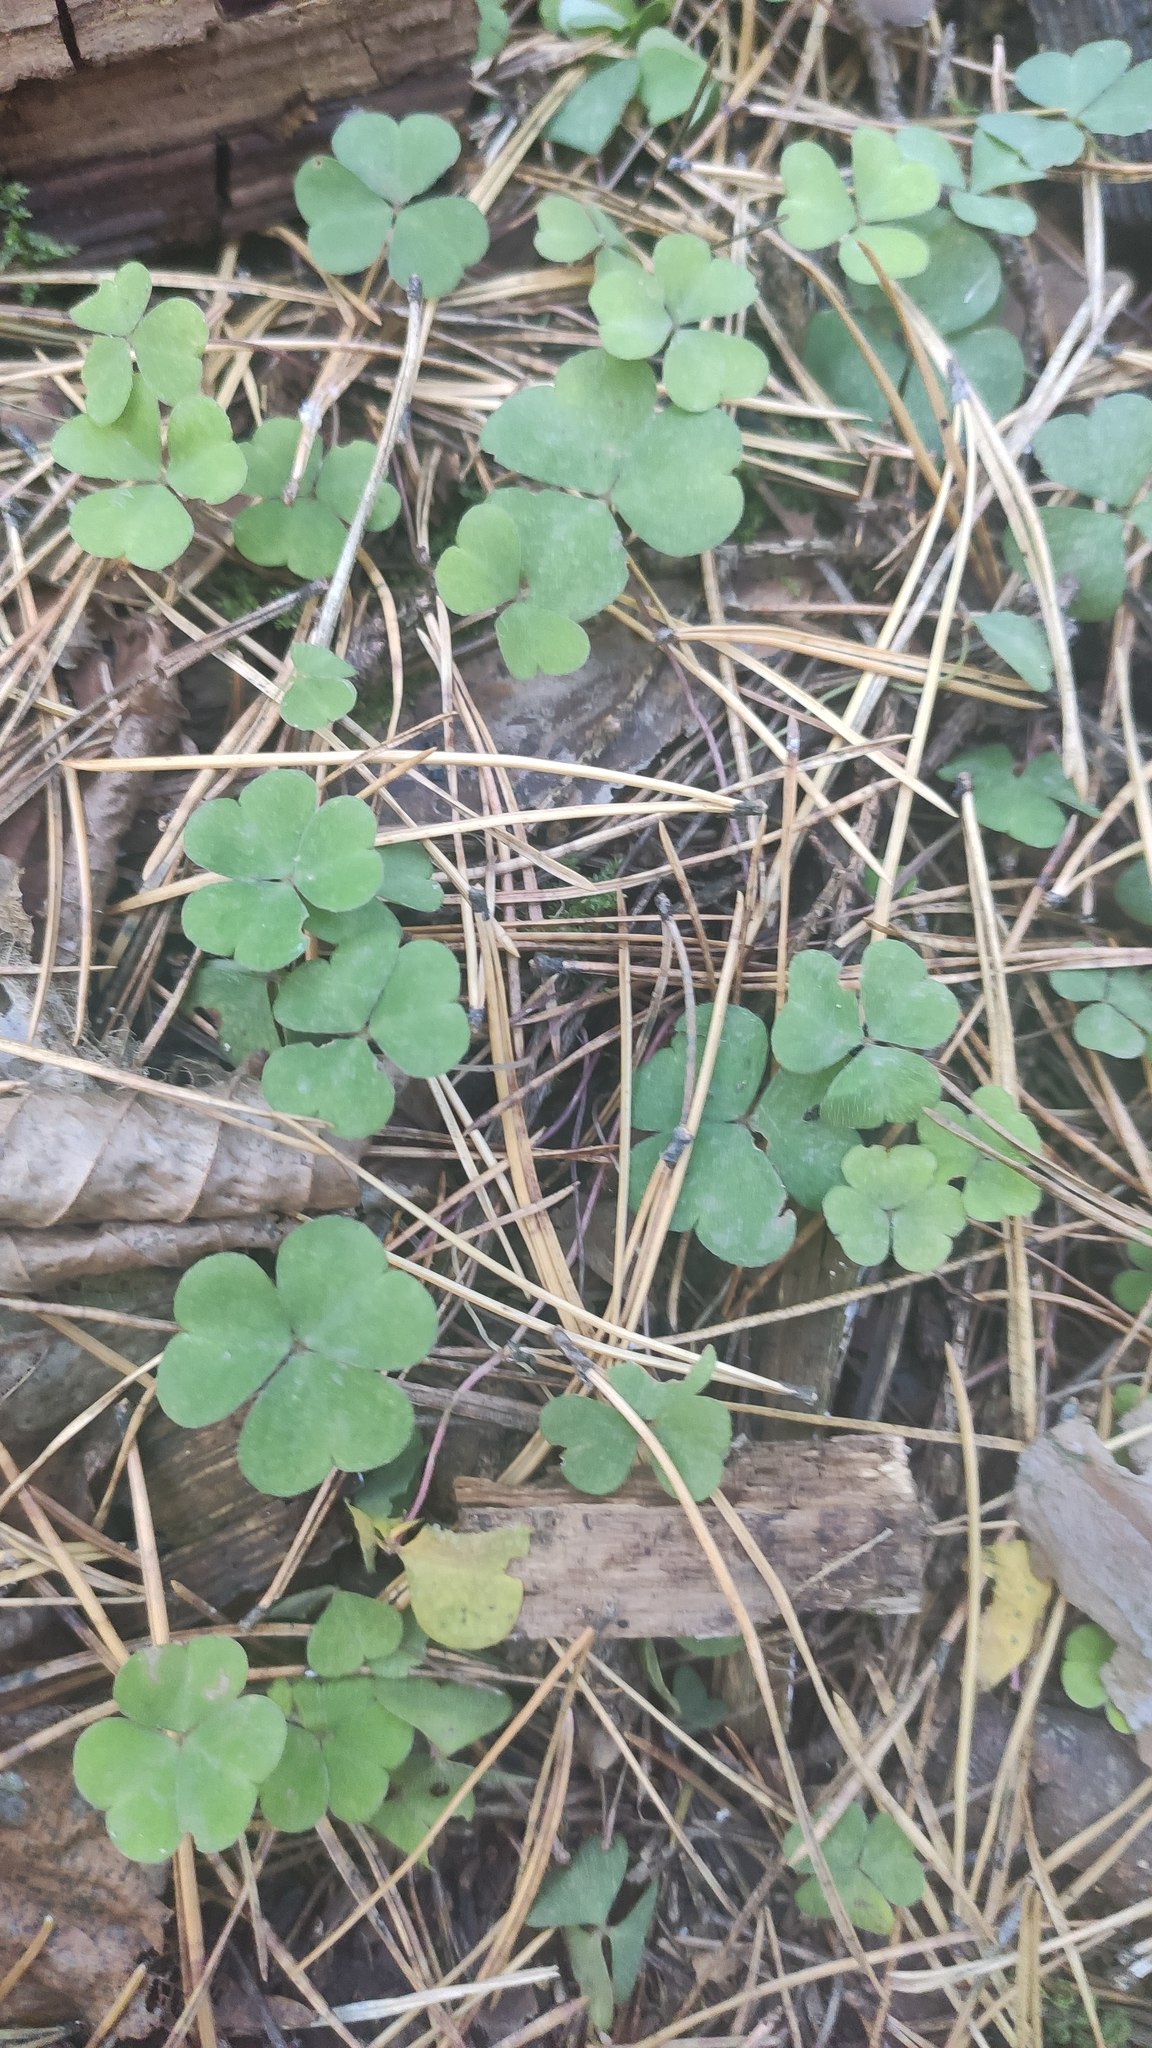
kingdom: Plantae
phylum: Tracheophyta
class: Magnoliopsida
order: Oxalidales
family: Oxalidaceae
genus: Oxalis
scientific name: Oxalis acetosella
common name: Wood-sorrel
